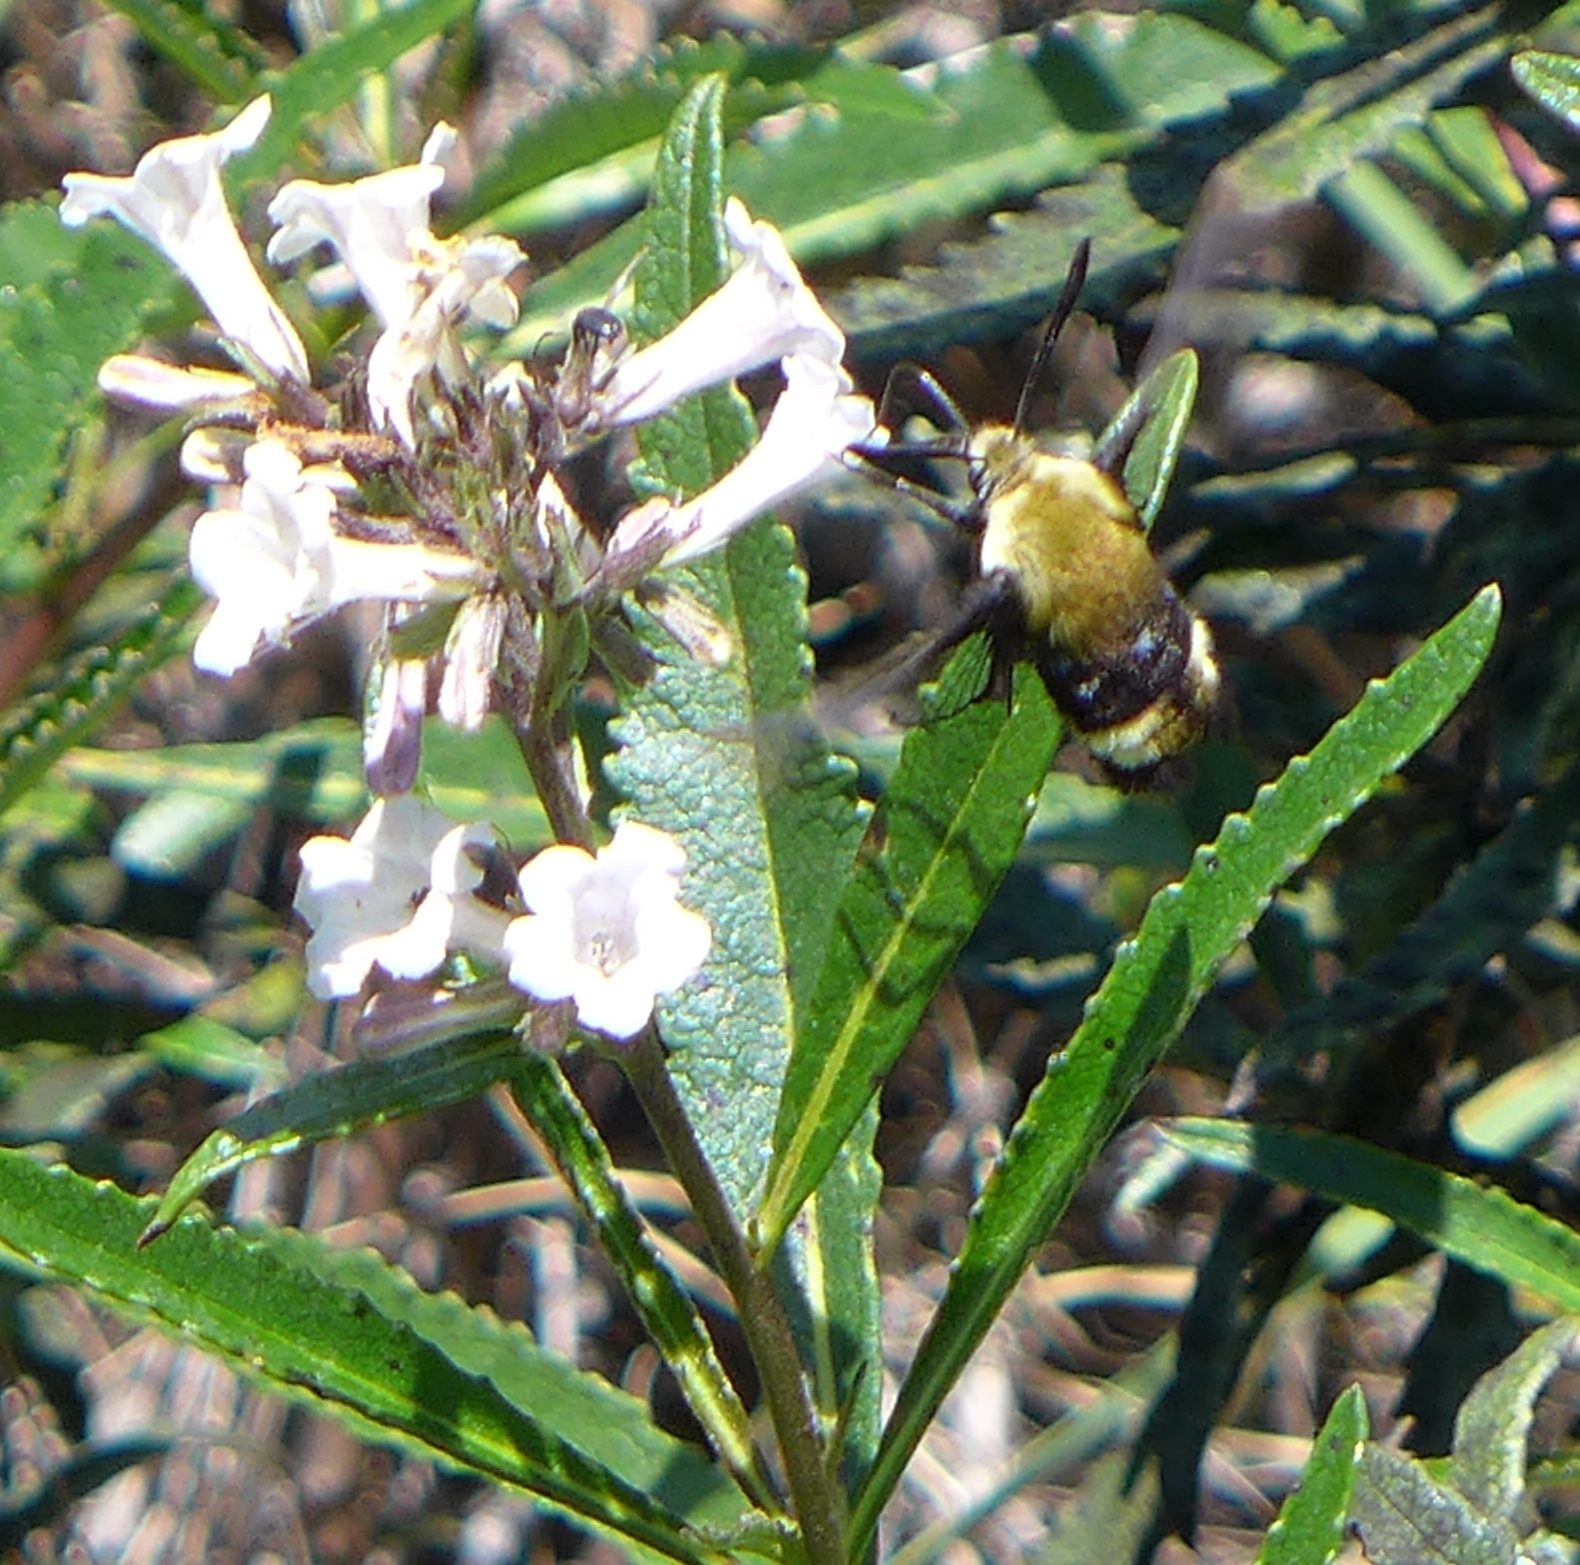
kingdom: Animalia
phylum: Arthropoda
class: Insecta
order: Lepidoptera
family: Sphingidae
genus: Hemaris
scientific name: Hemaris thetis
